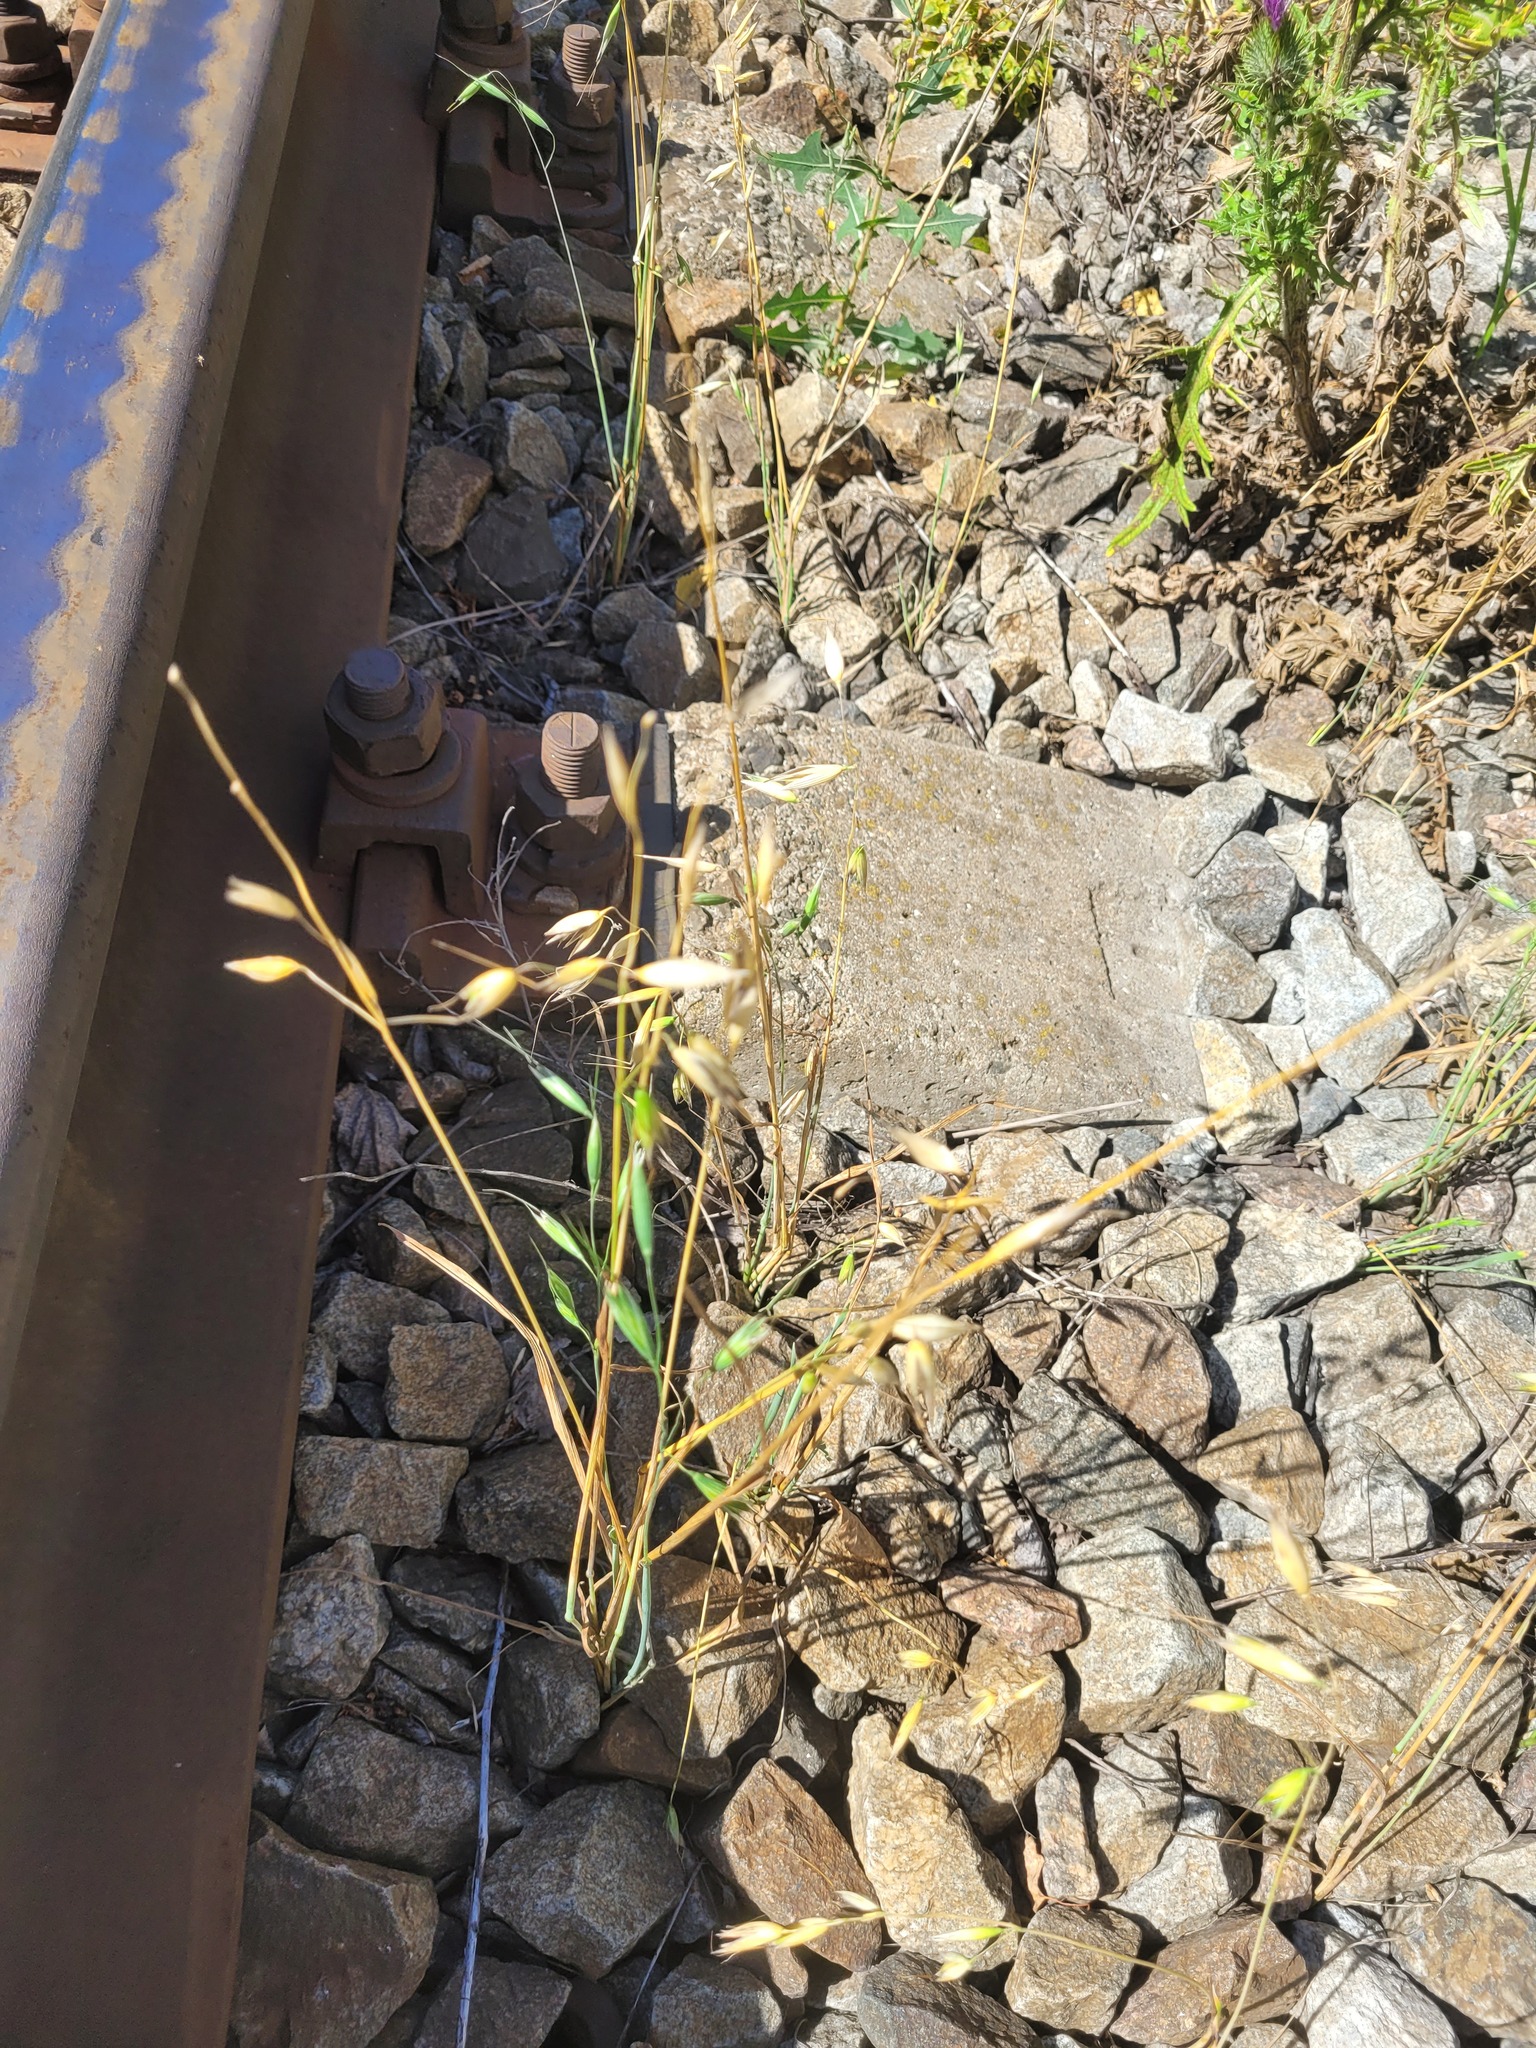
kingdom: Plantae
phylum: Tracheophyta
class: Liliopsida
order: Poales
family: Poaceae
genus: Avena
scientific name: Avena fatua
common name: Wild oat
